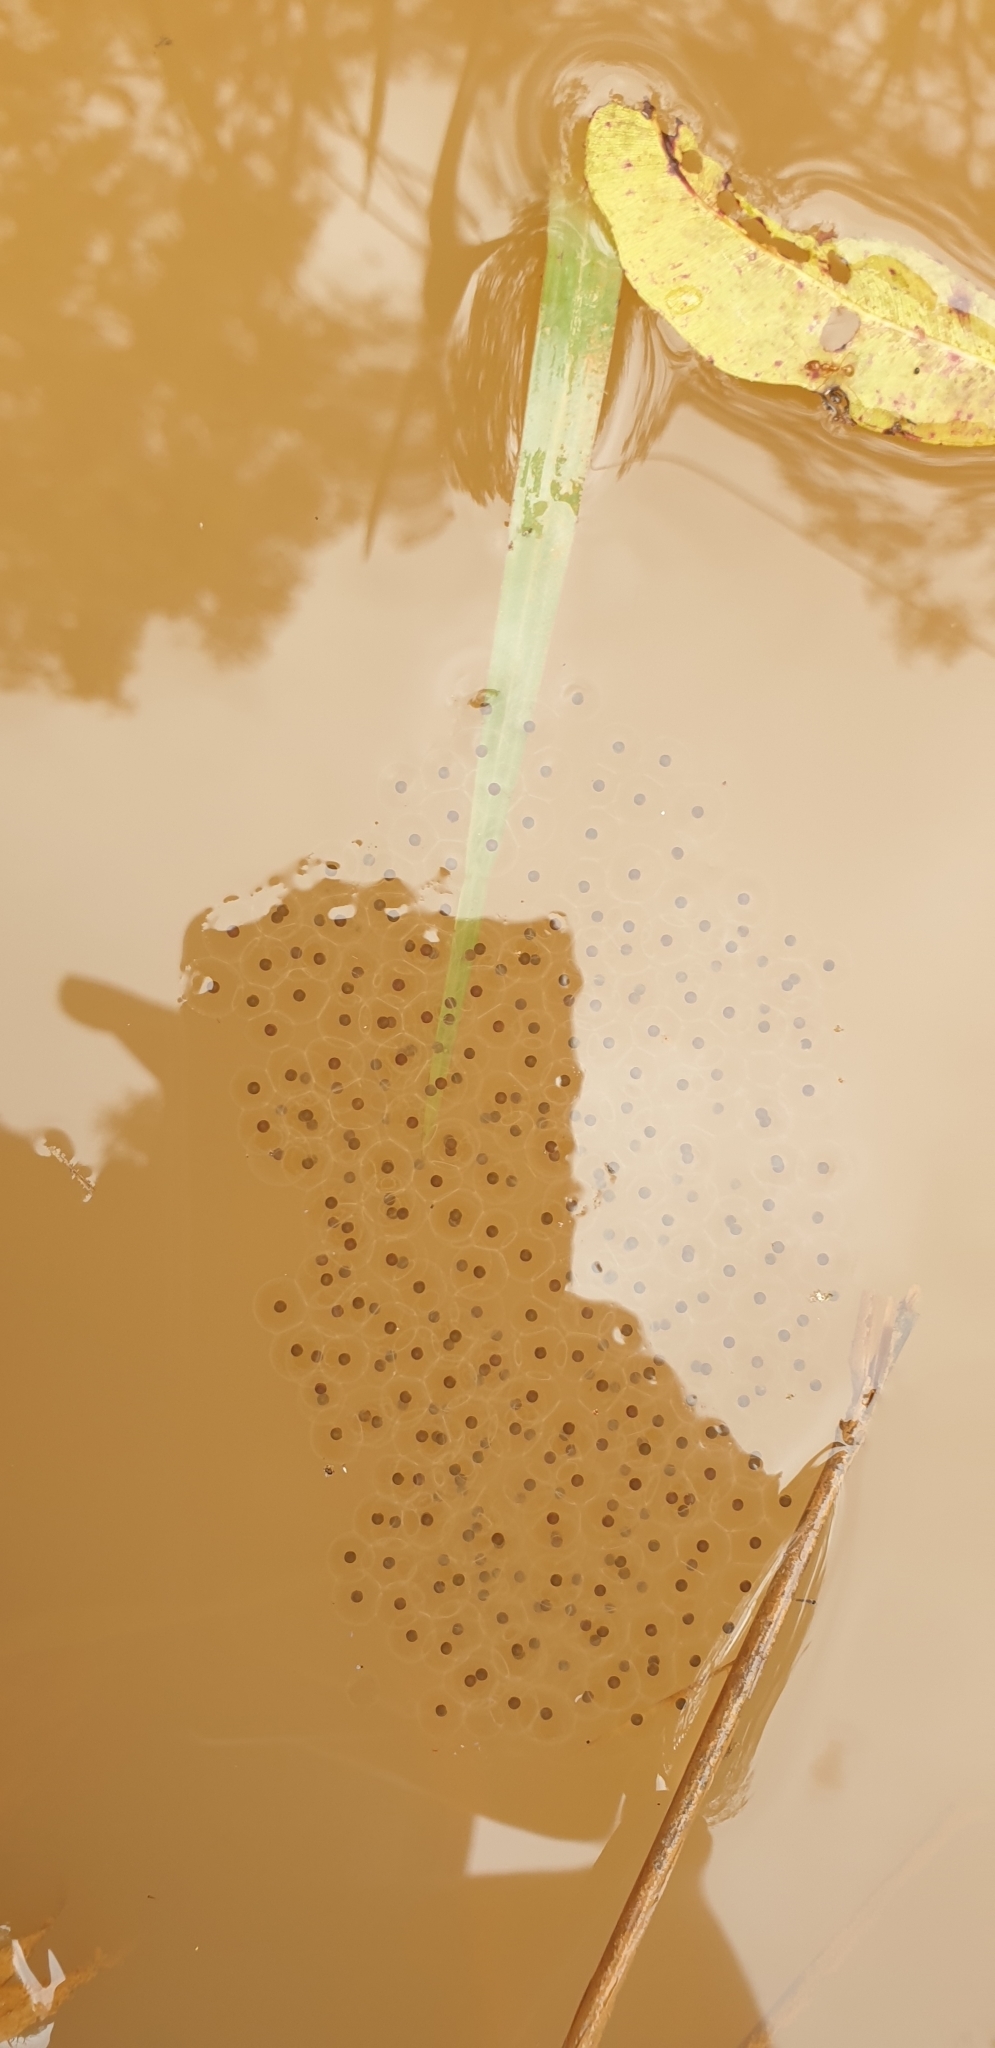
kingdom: Animalia
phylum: Chordata
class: Amphibia
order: Anura
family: Pelodryadidae
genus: Ranoidea
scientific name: Ranoidea caerulea
